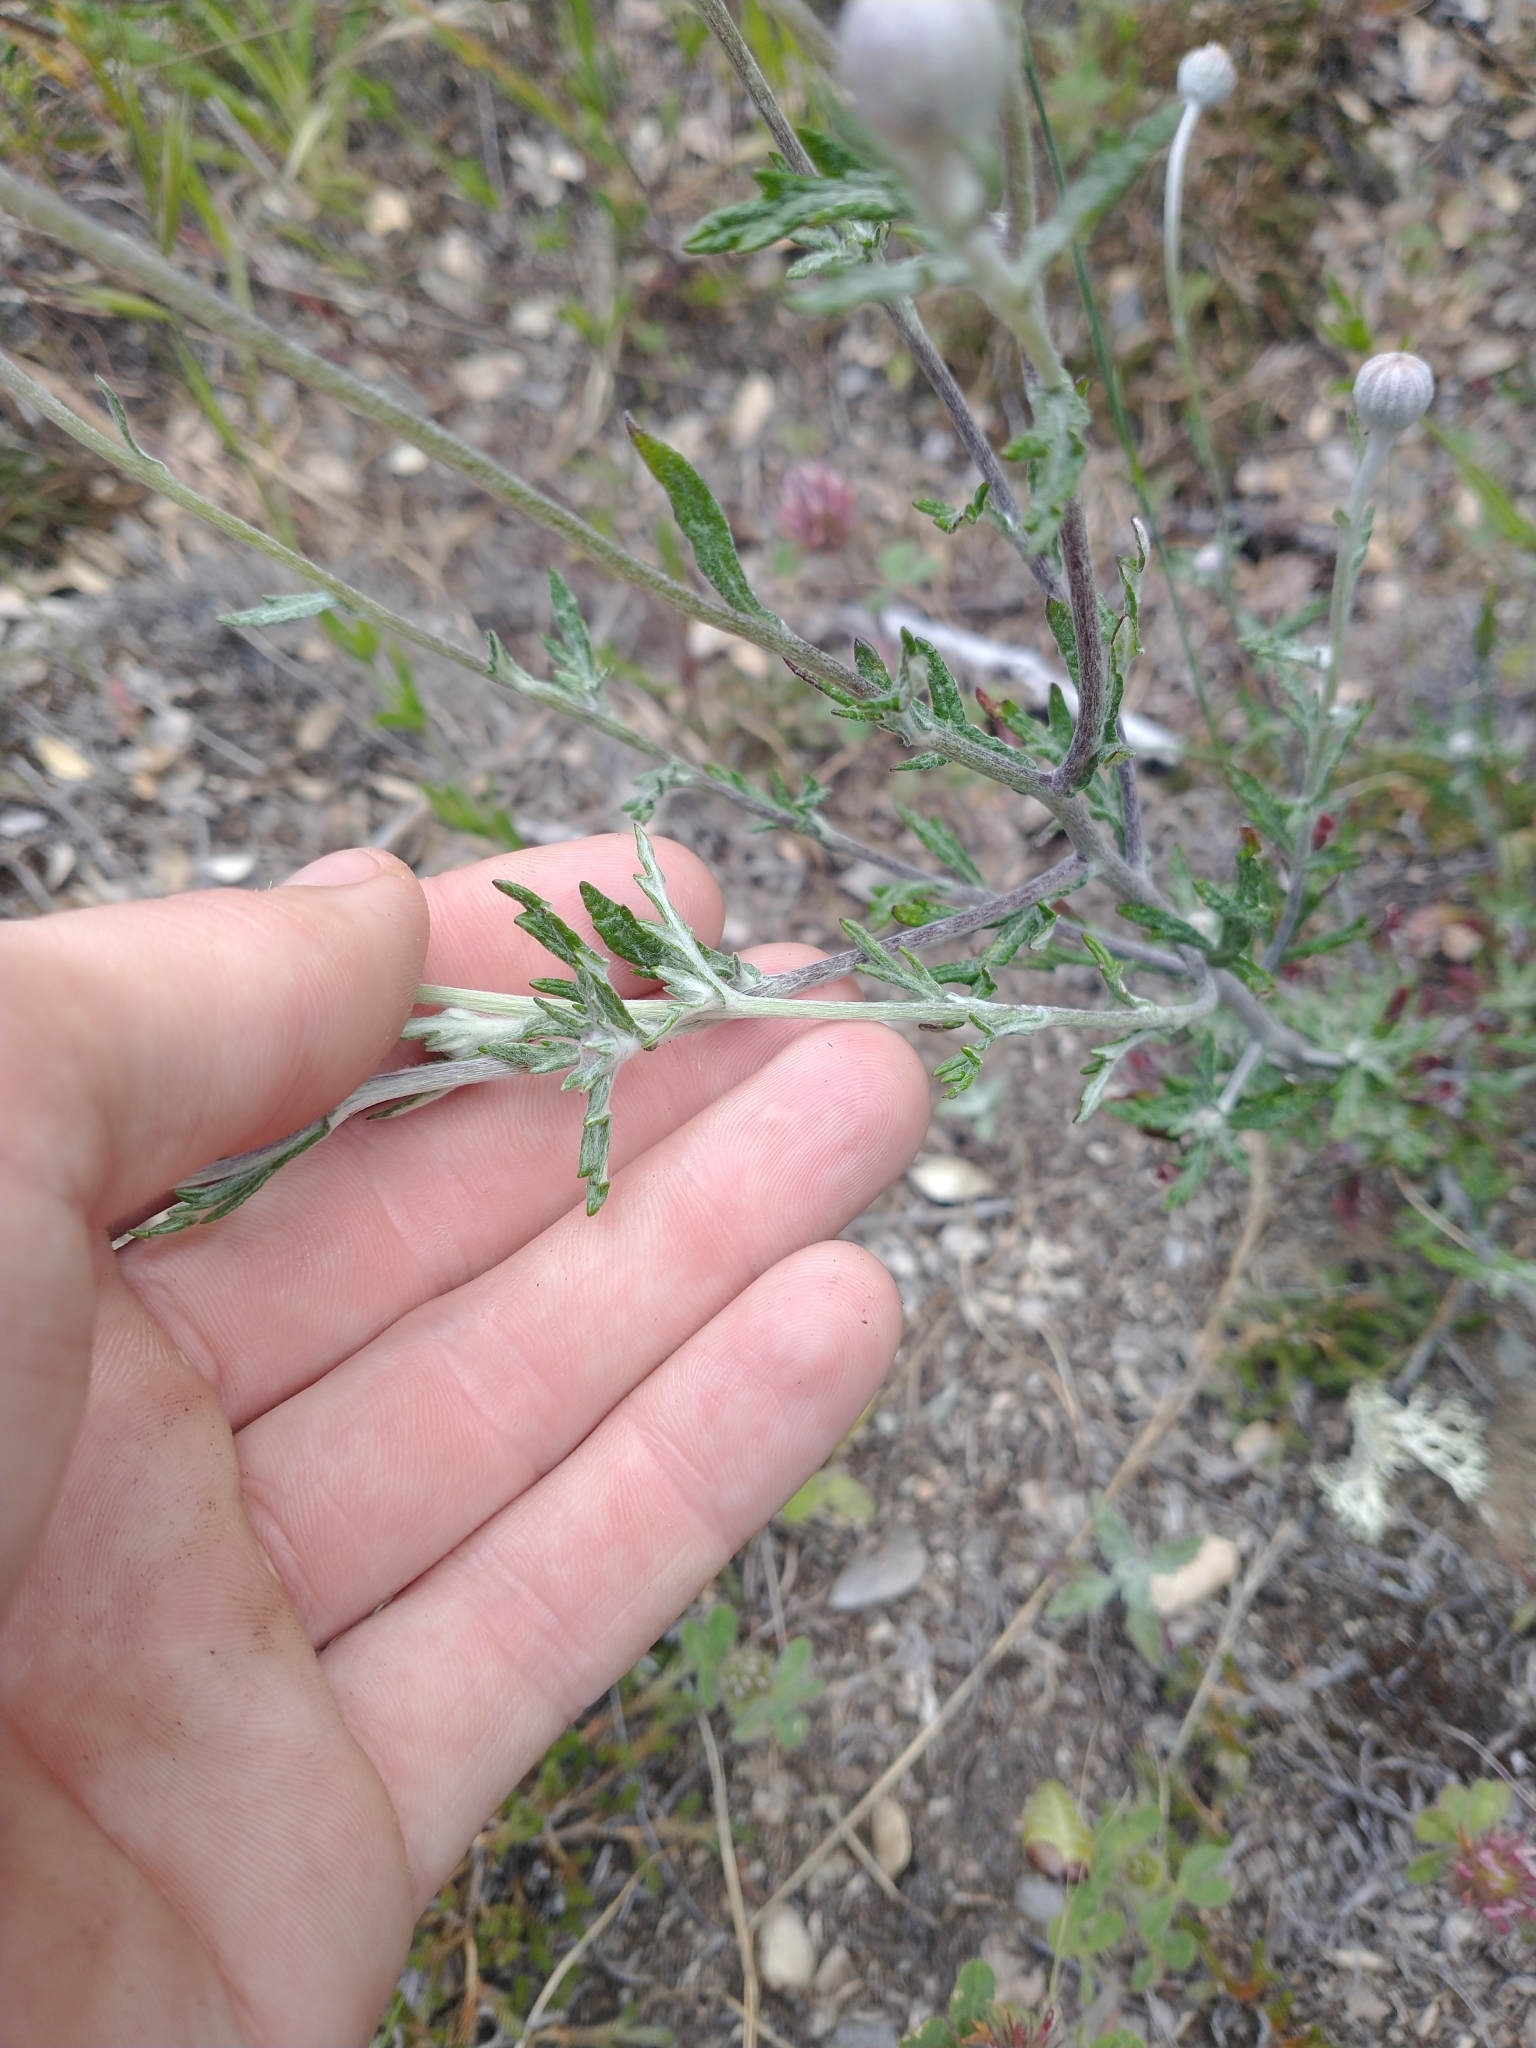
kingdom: Plantae
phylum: Tracheophyta
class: Magnoliopsida
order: Asterales
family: Asteraceae
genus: Eriophyllum
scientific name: Eriophyllum lanatum
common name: Common woolly-sunflower
